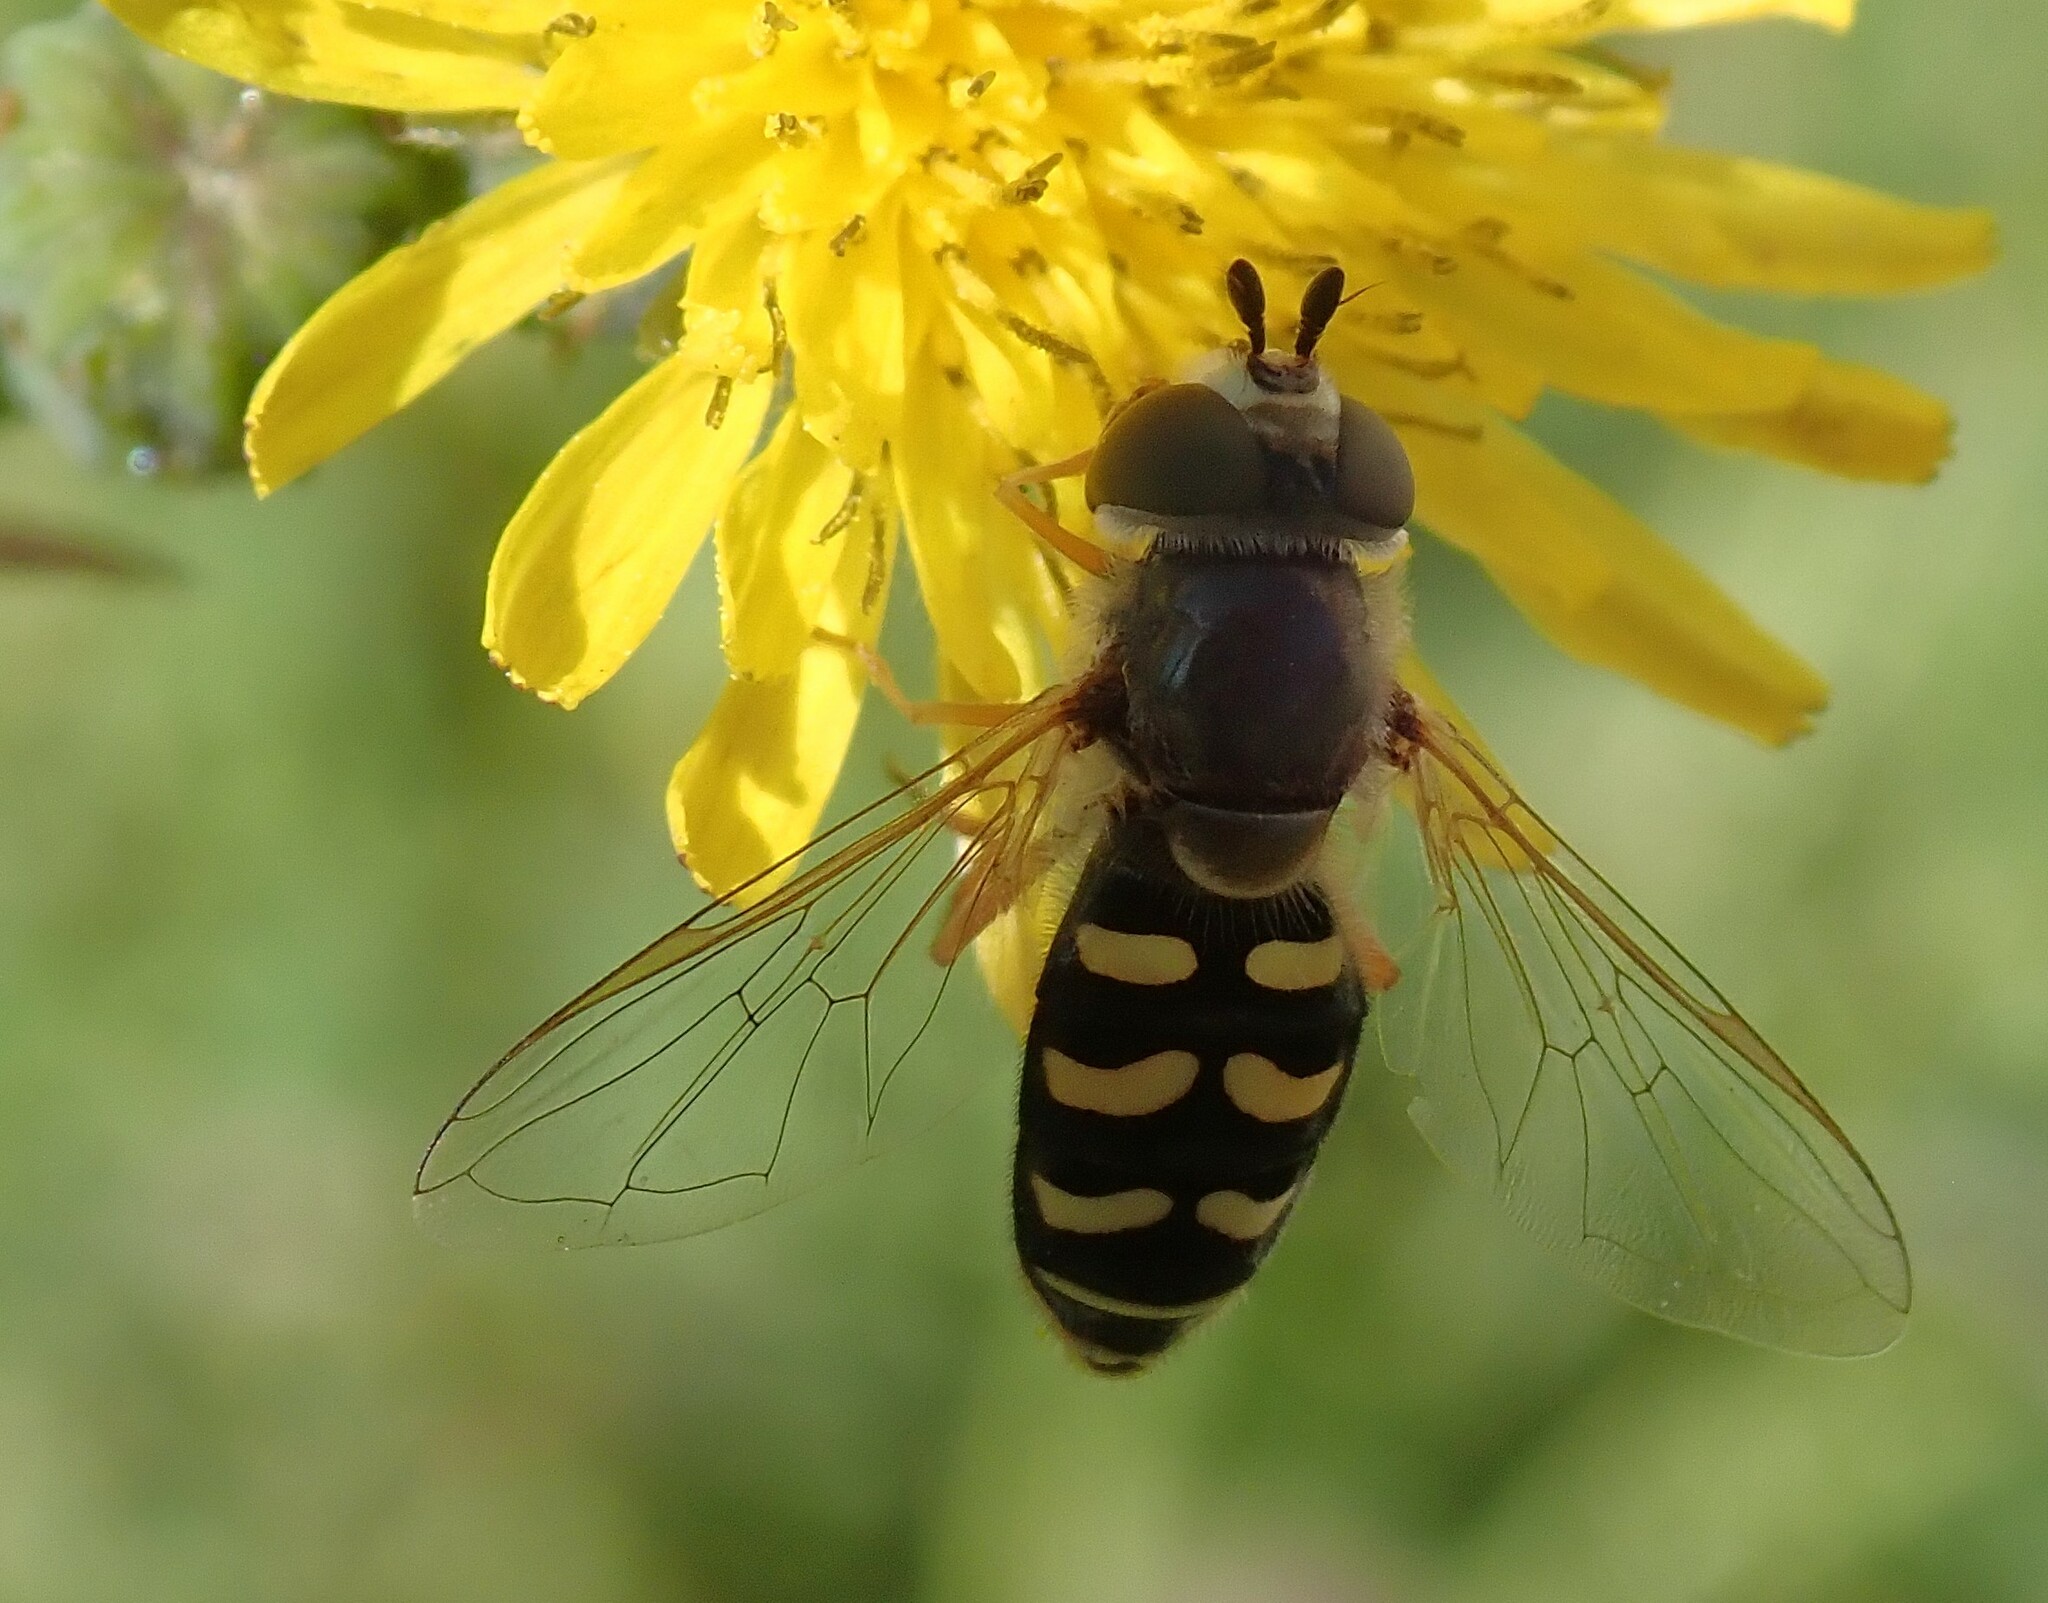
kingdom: Animalia
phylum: Arthropoda
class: Insecta
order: Diptera
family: Syrphidae
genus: Eupeodes
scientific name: Eupeodes volucris
